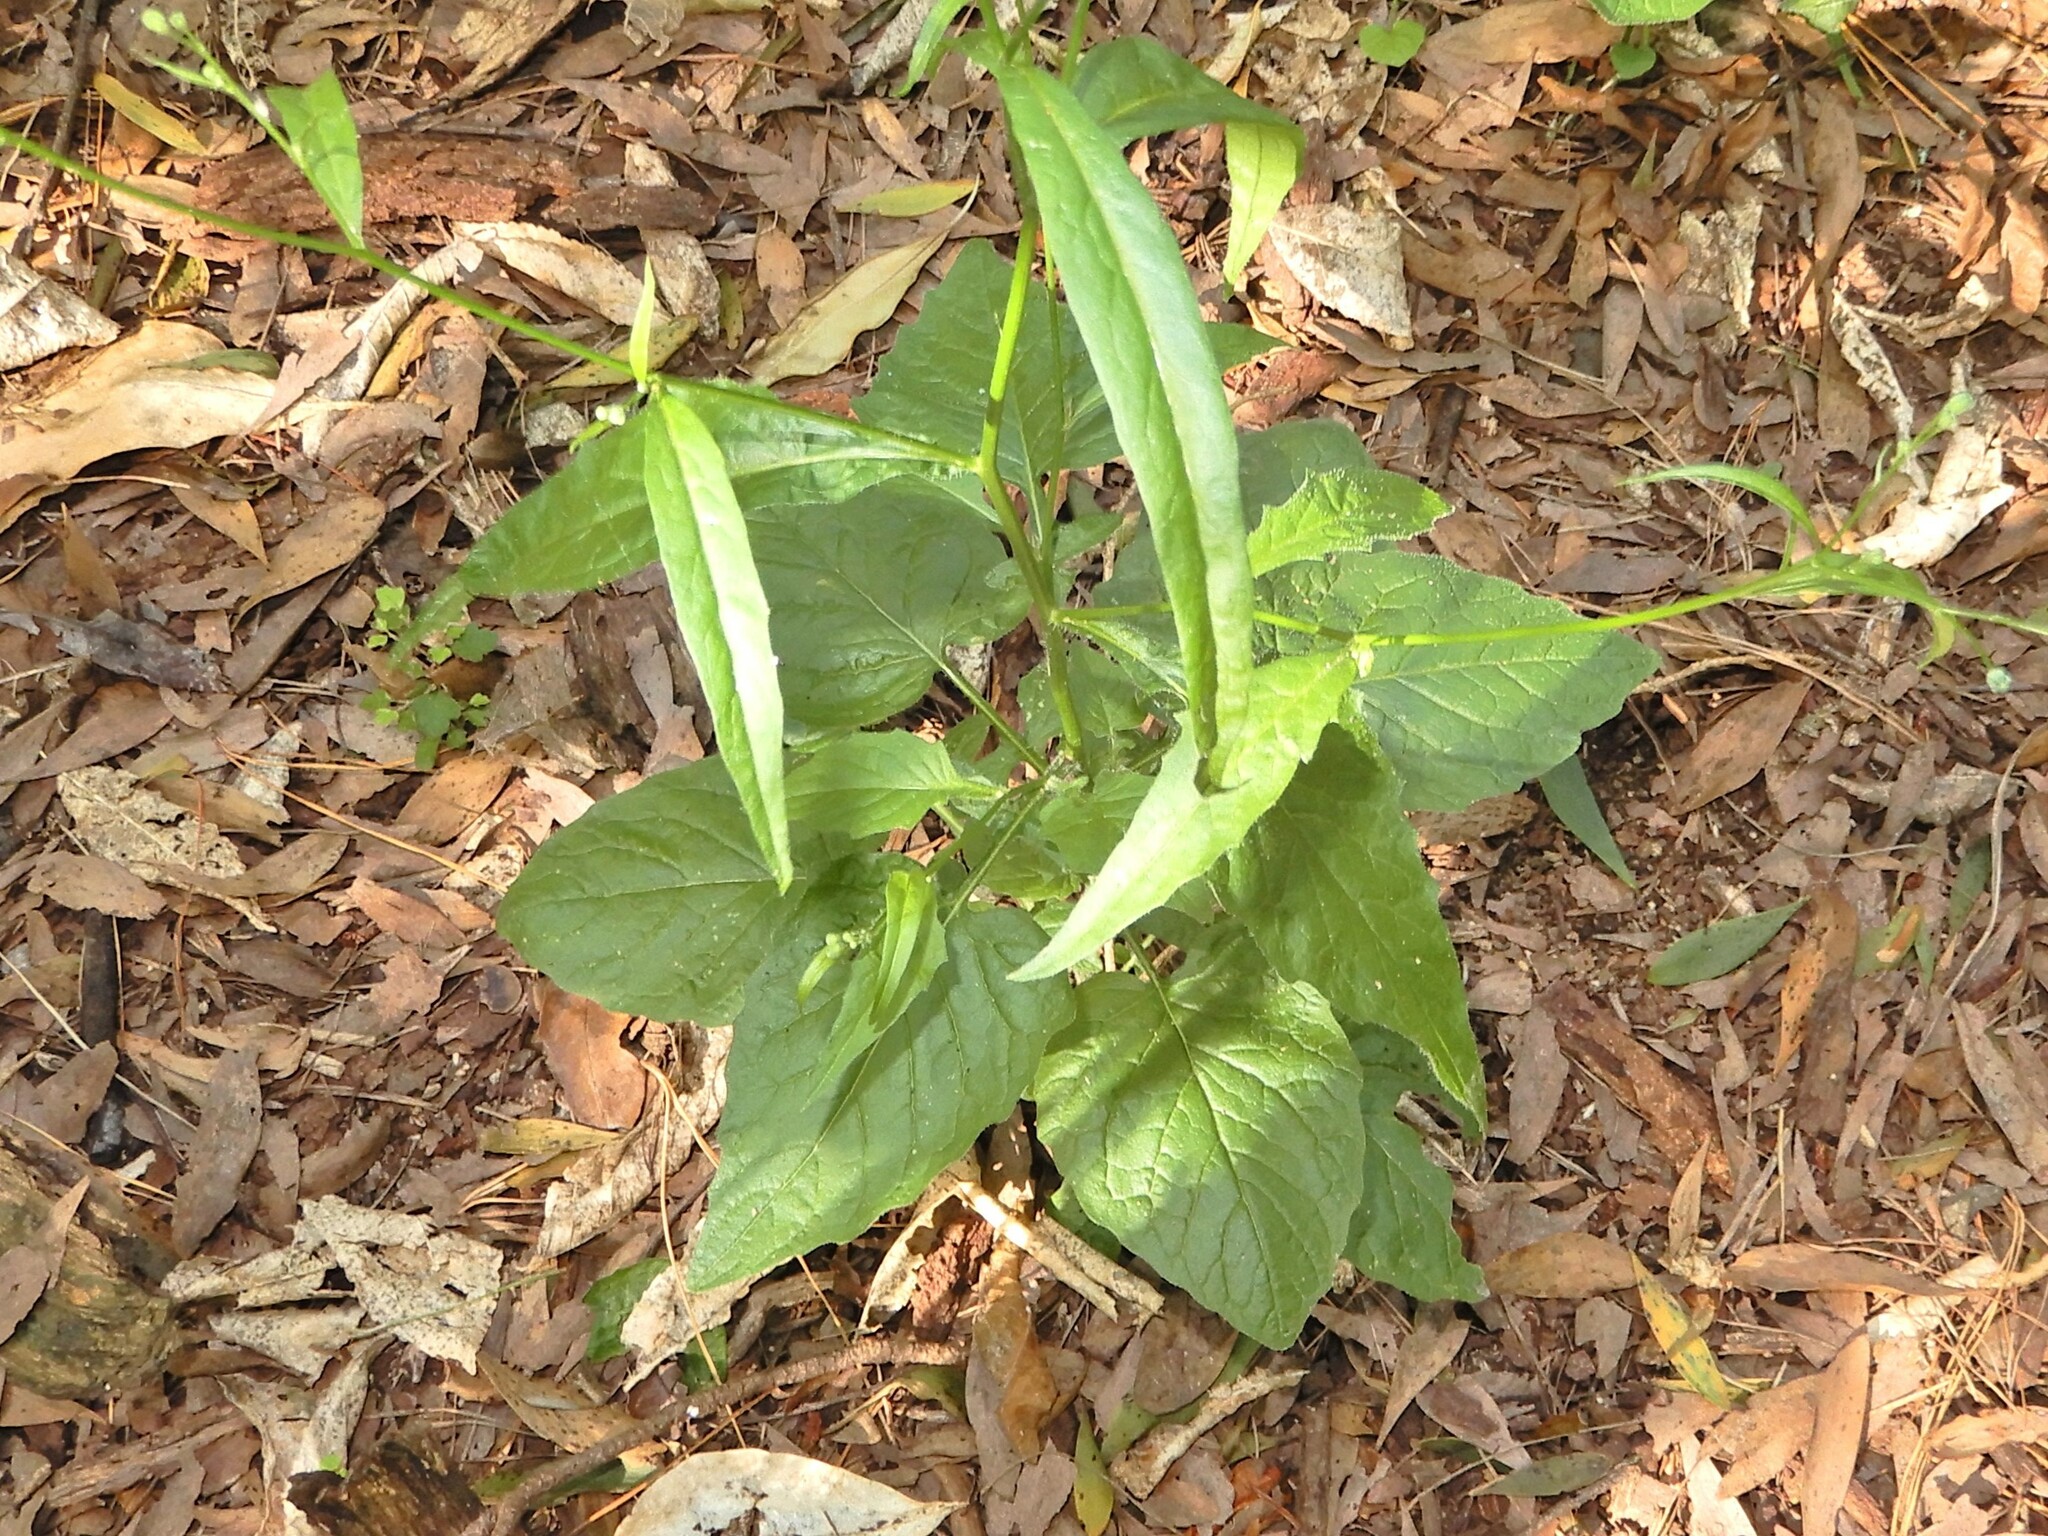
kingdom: Plantae
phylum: Tracheophyta
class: Magnoliopsida
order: Asterales
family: Asteraceae
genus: Lapsana
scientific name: Lapsana communis
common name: Nipplewort
